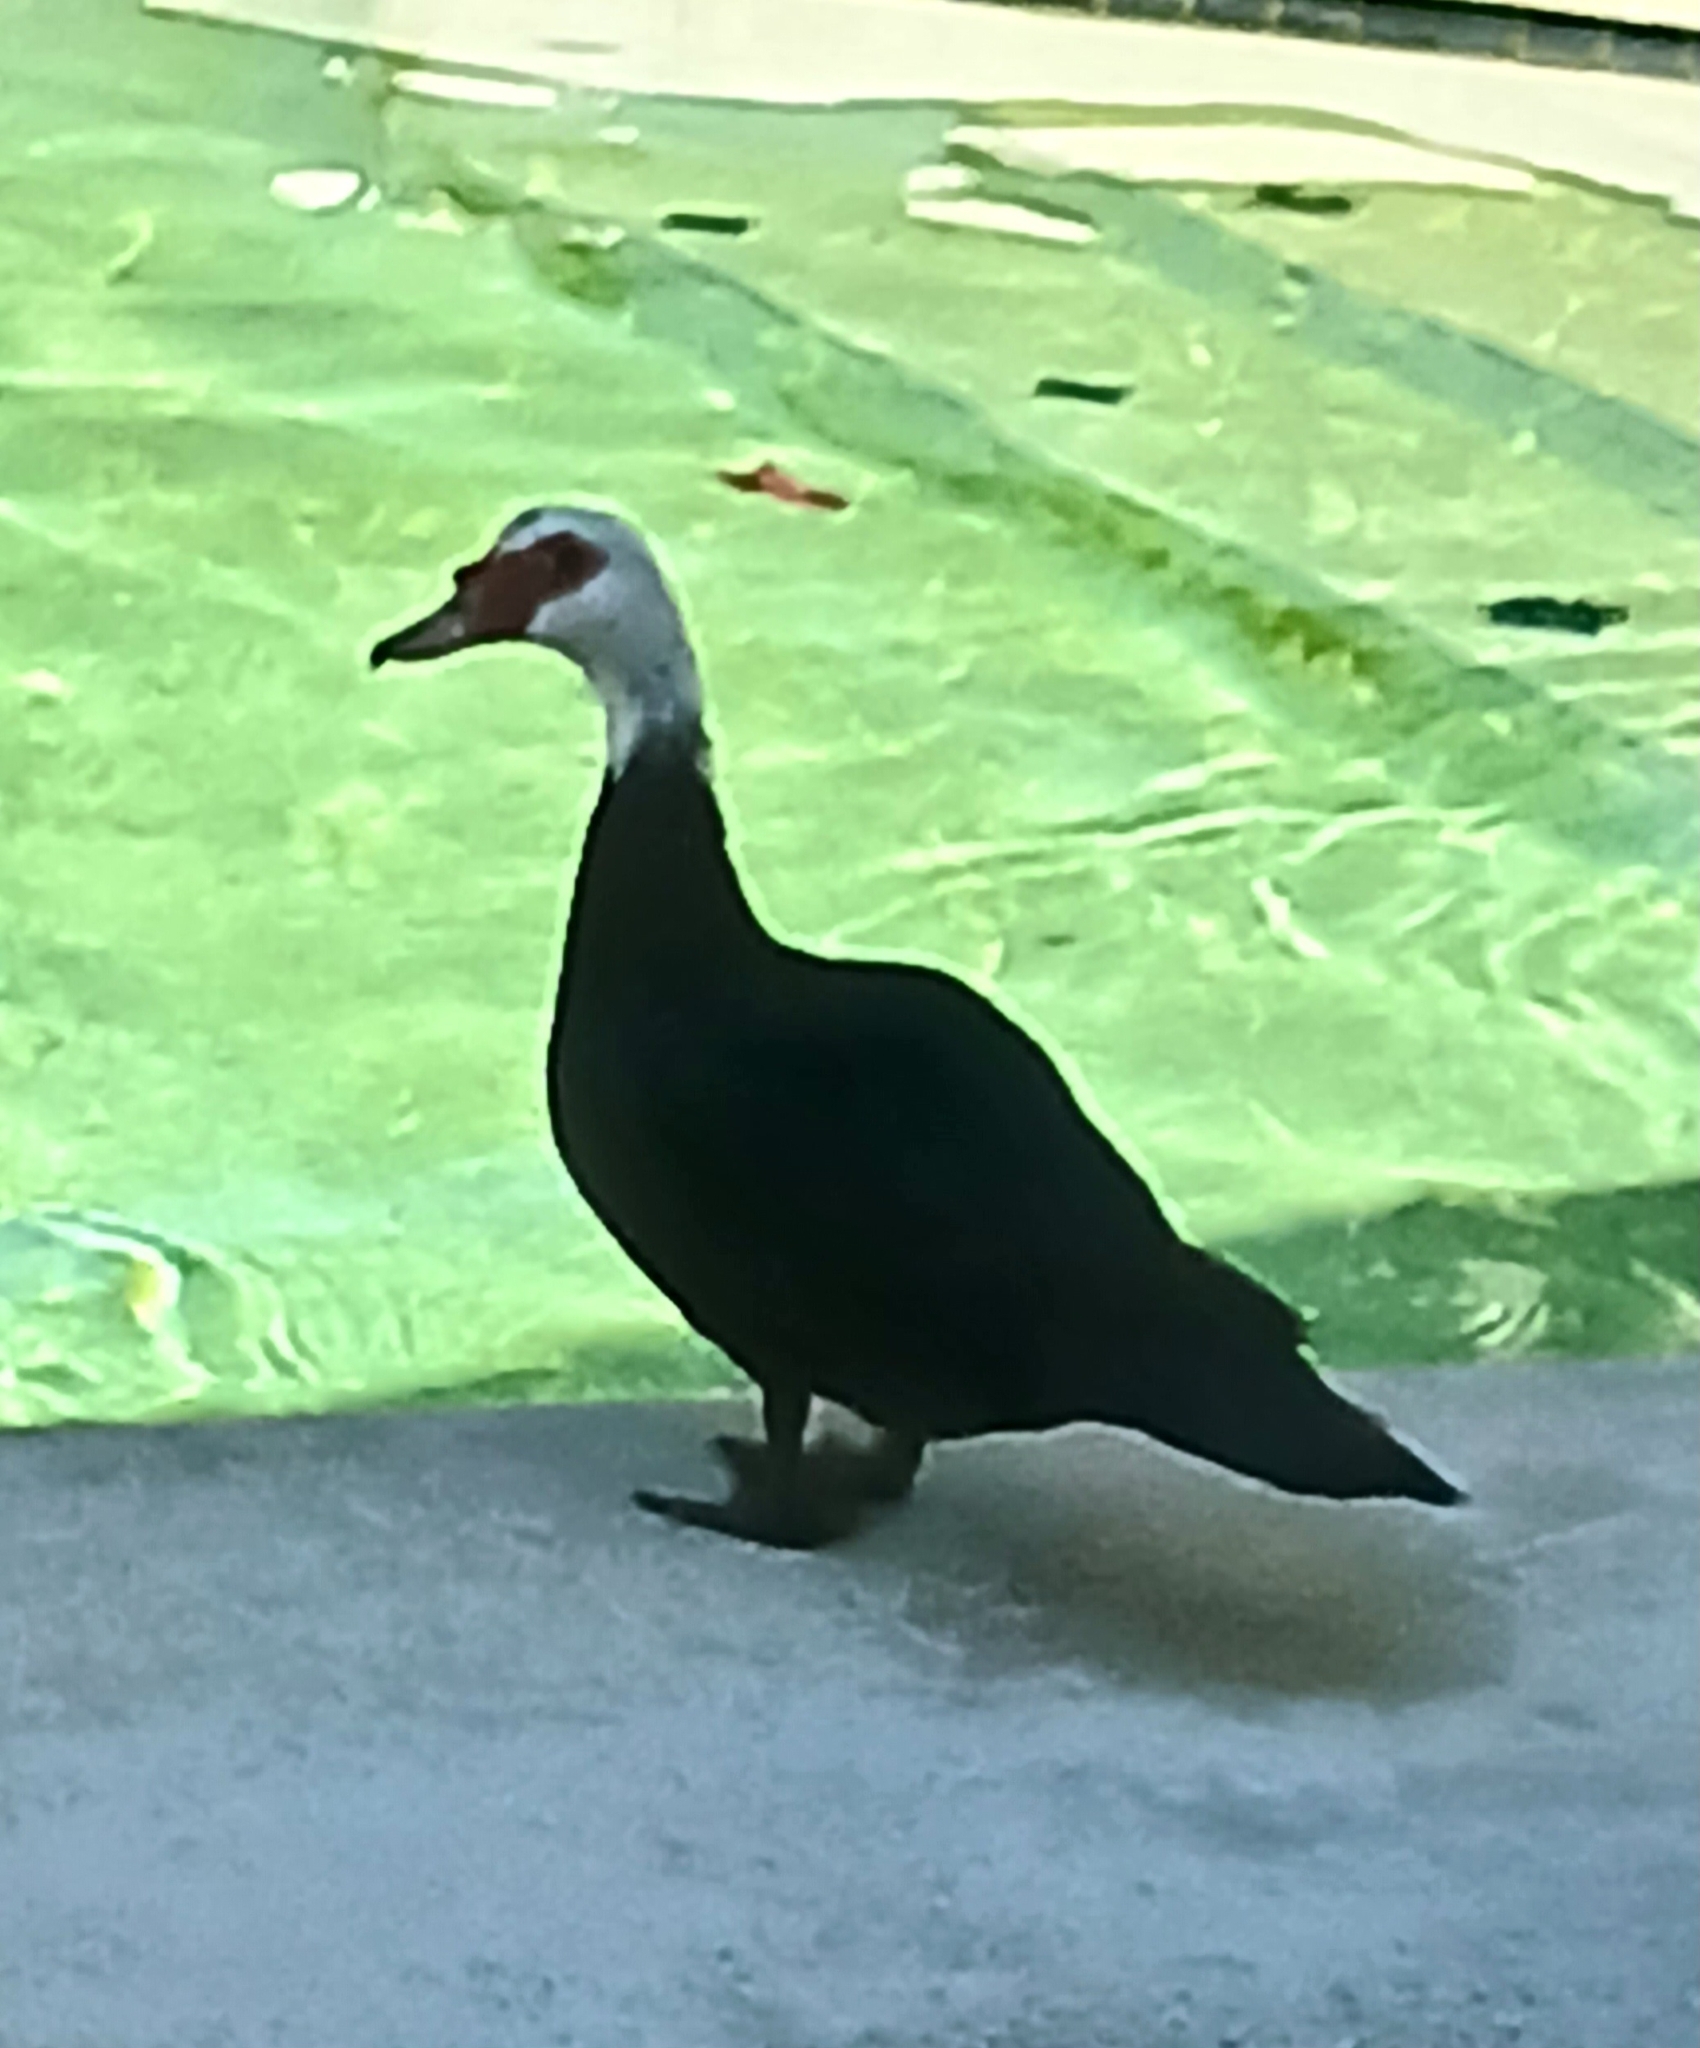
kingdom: Animalia
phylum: Chordata
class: Aves
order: Anseriformes
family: Anatidae
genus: Cairina
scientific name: Cairina moschata
